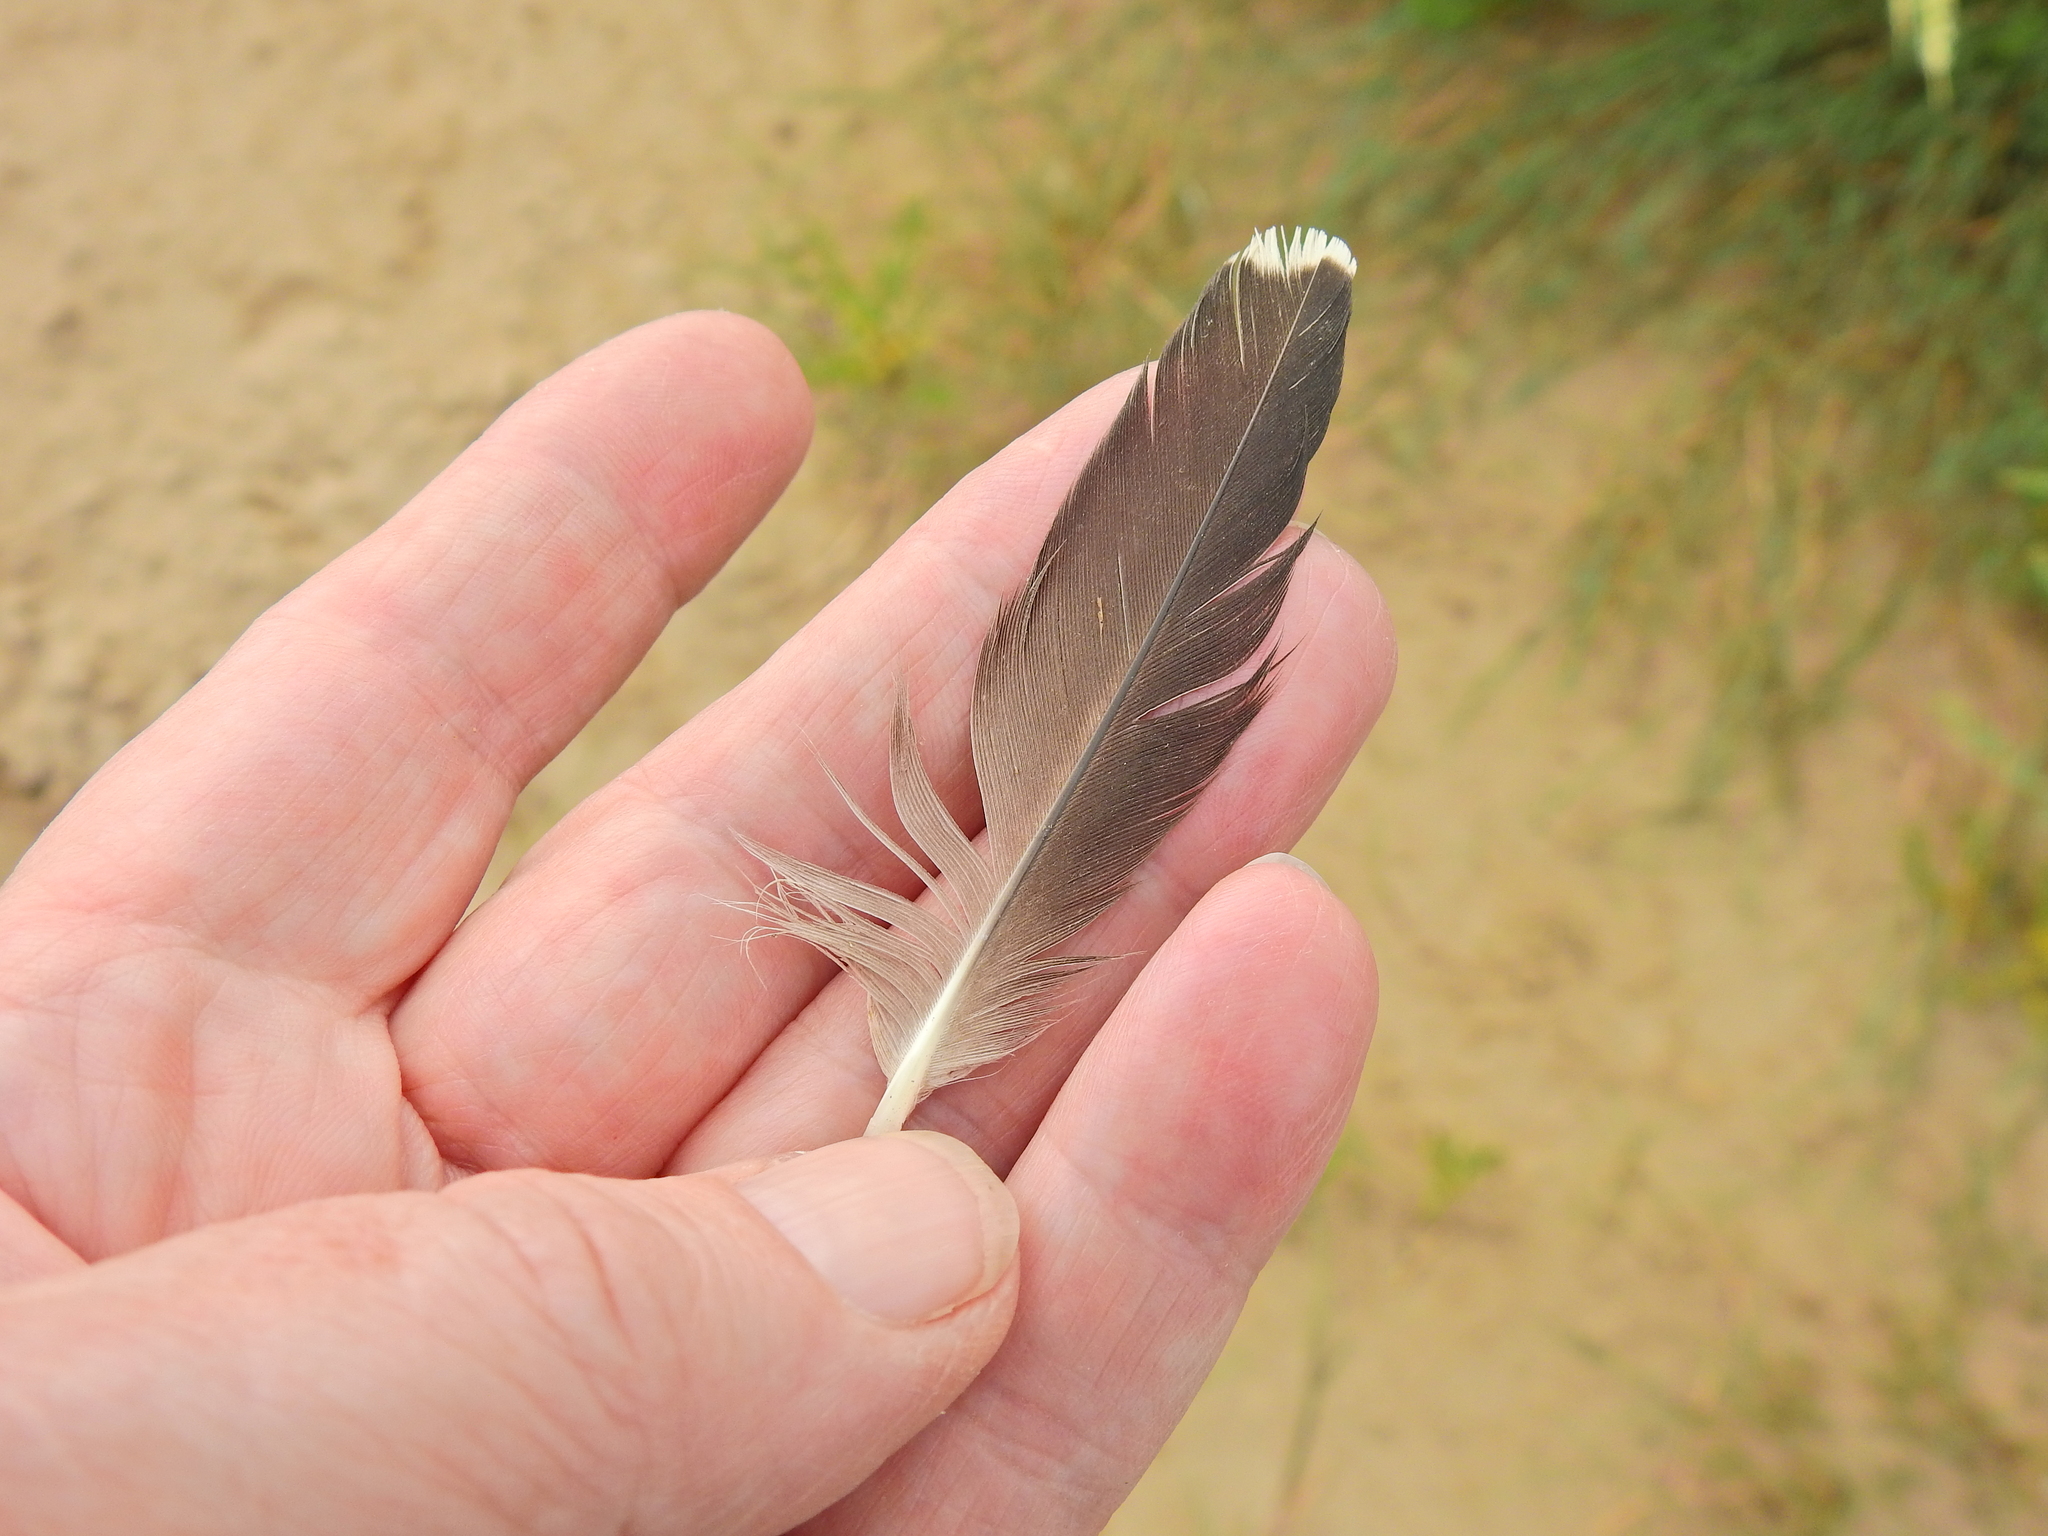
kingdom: Animalia
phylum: Chordata
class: Aves
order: Charadriiformes
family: Haematopodidae
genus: Haematopus
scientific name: Haematopus ostralegus
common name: Eurasian oystercatcher
